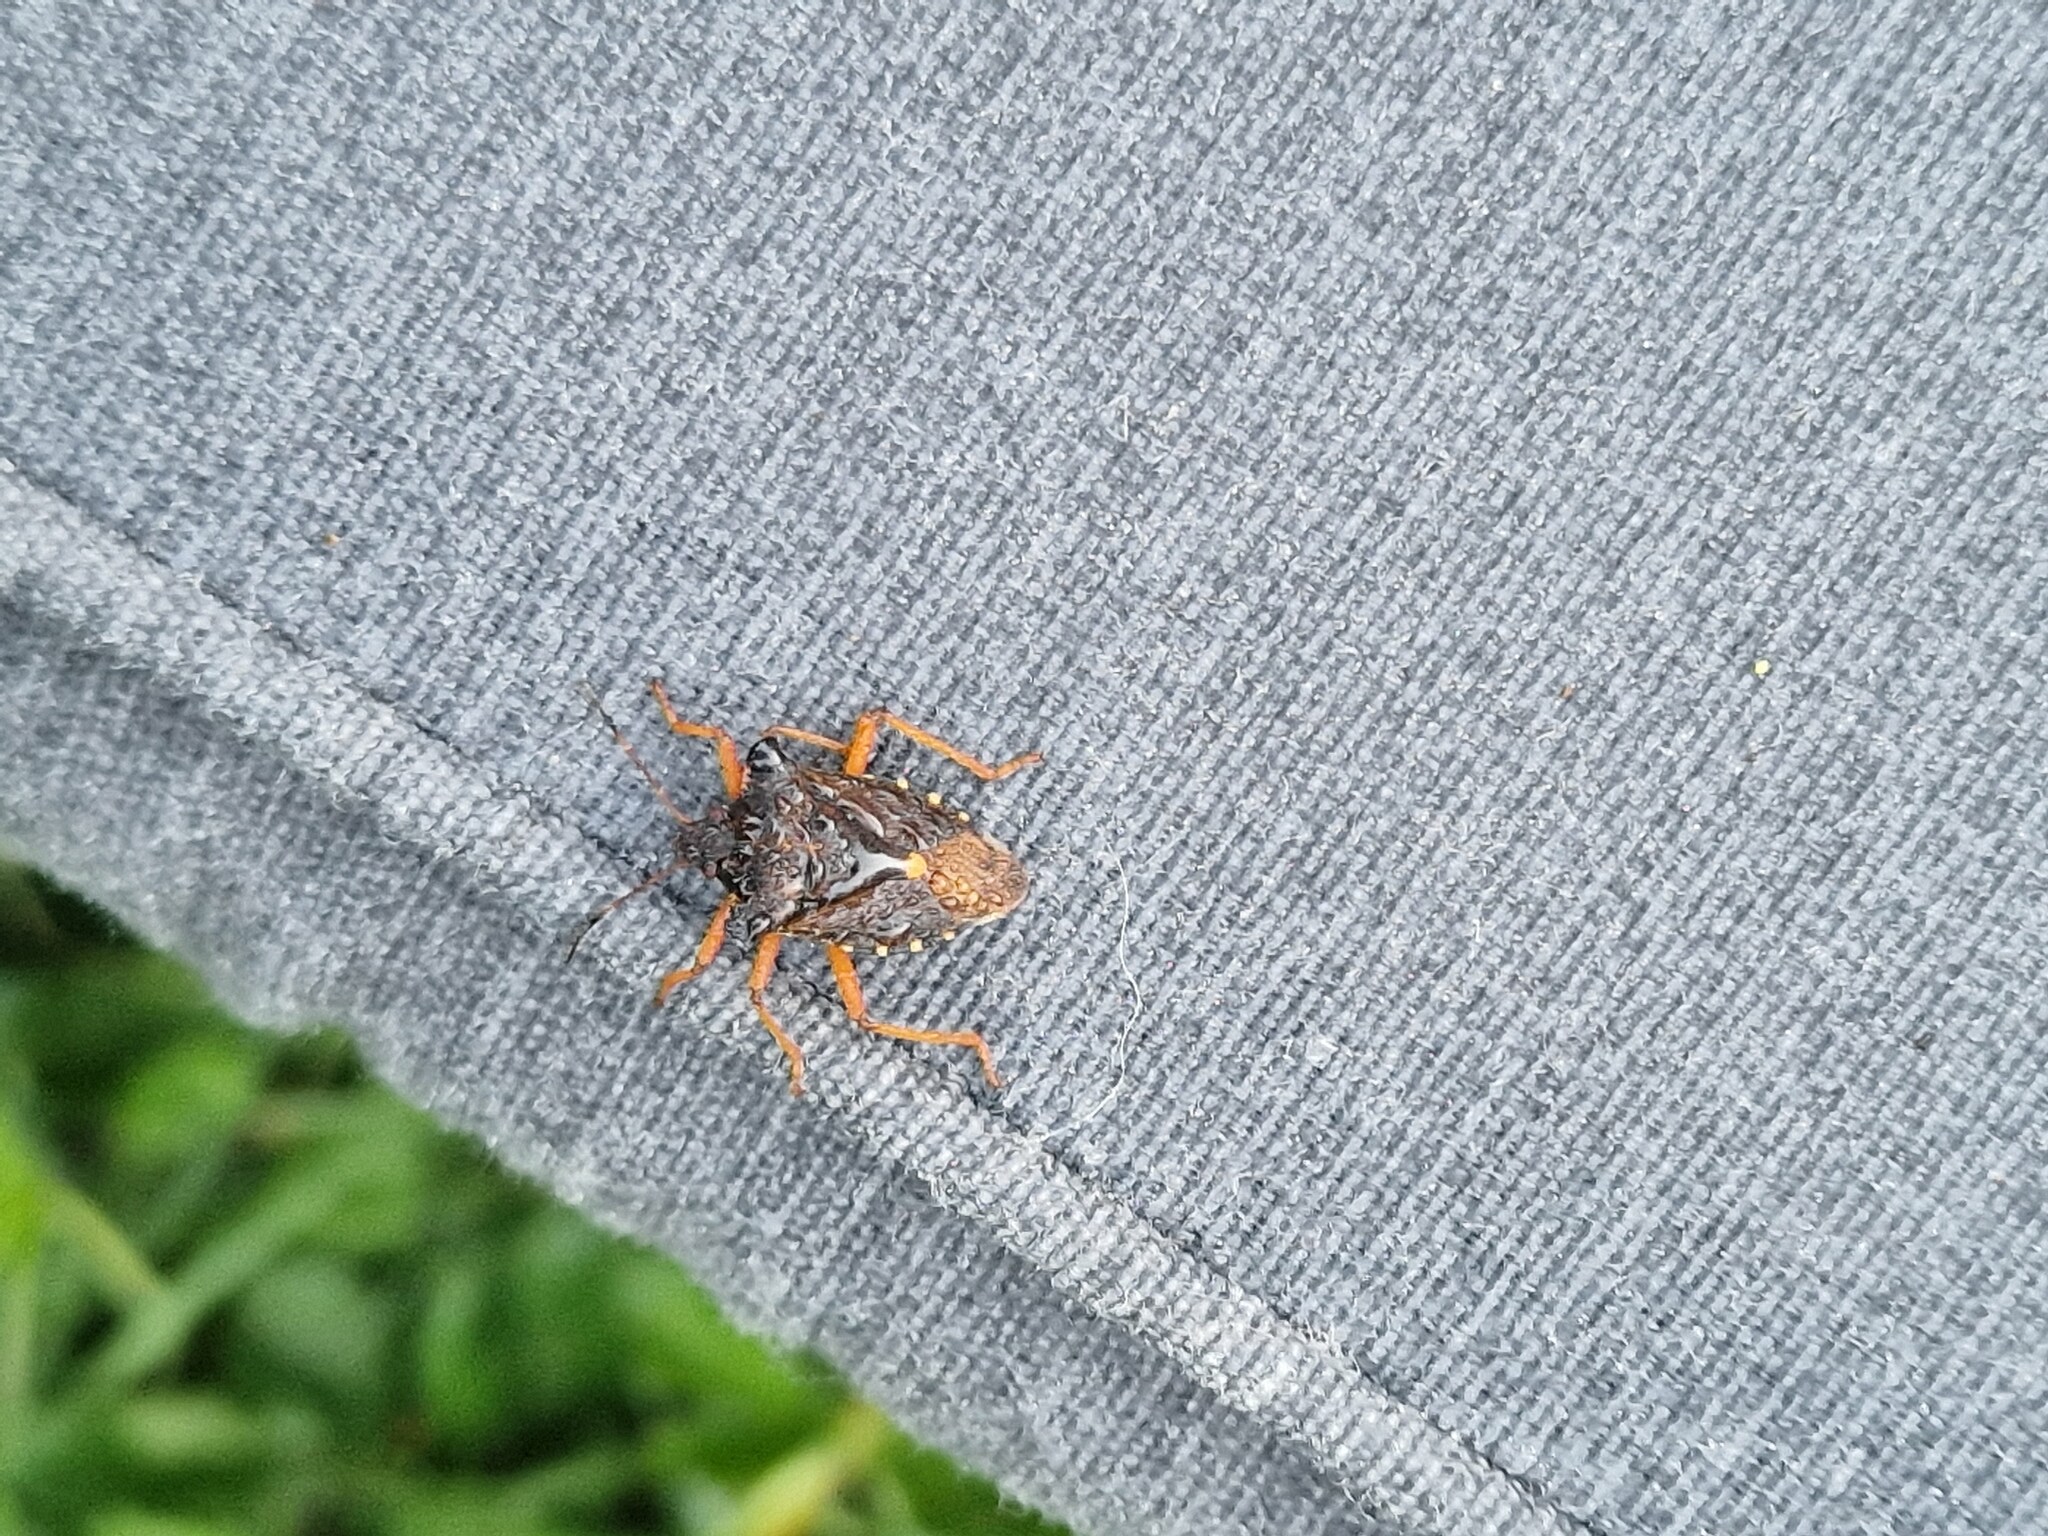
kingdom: Animalia
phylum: Arthropoda
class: Insecta
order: Hemiptera
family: Pentatomidae
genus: Pentatoma
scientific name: Pentatoma rufipes
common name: Forest bug
